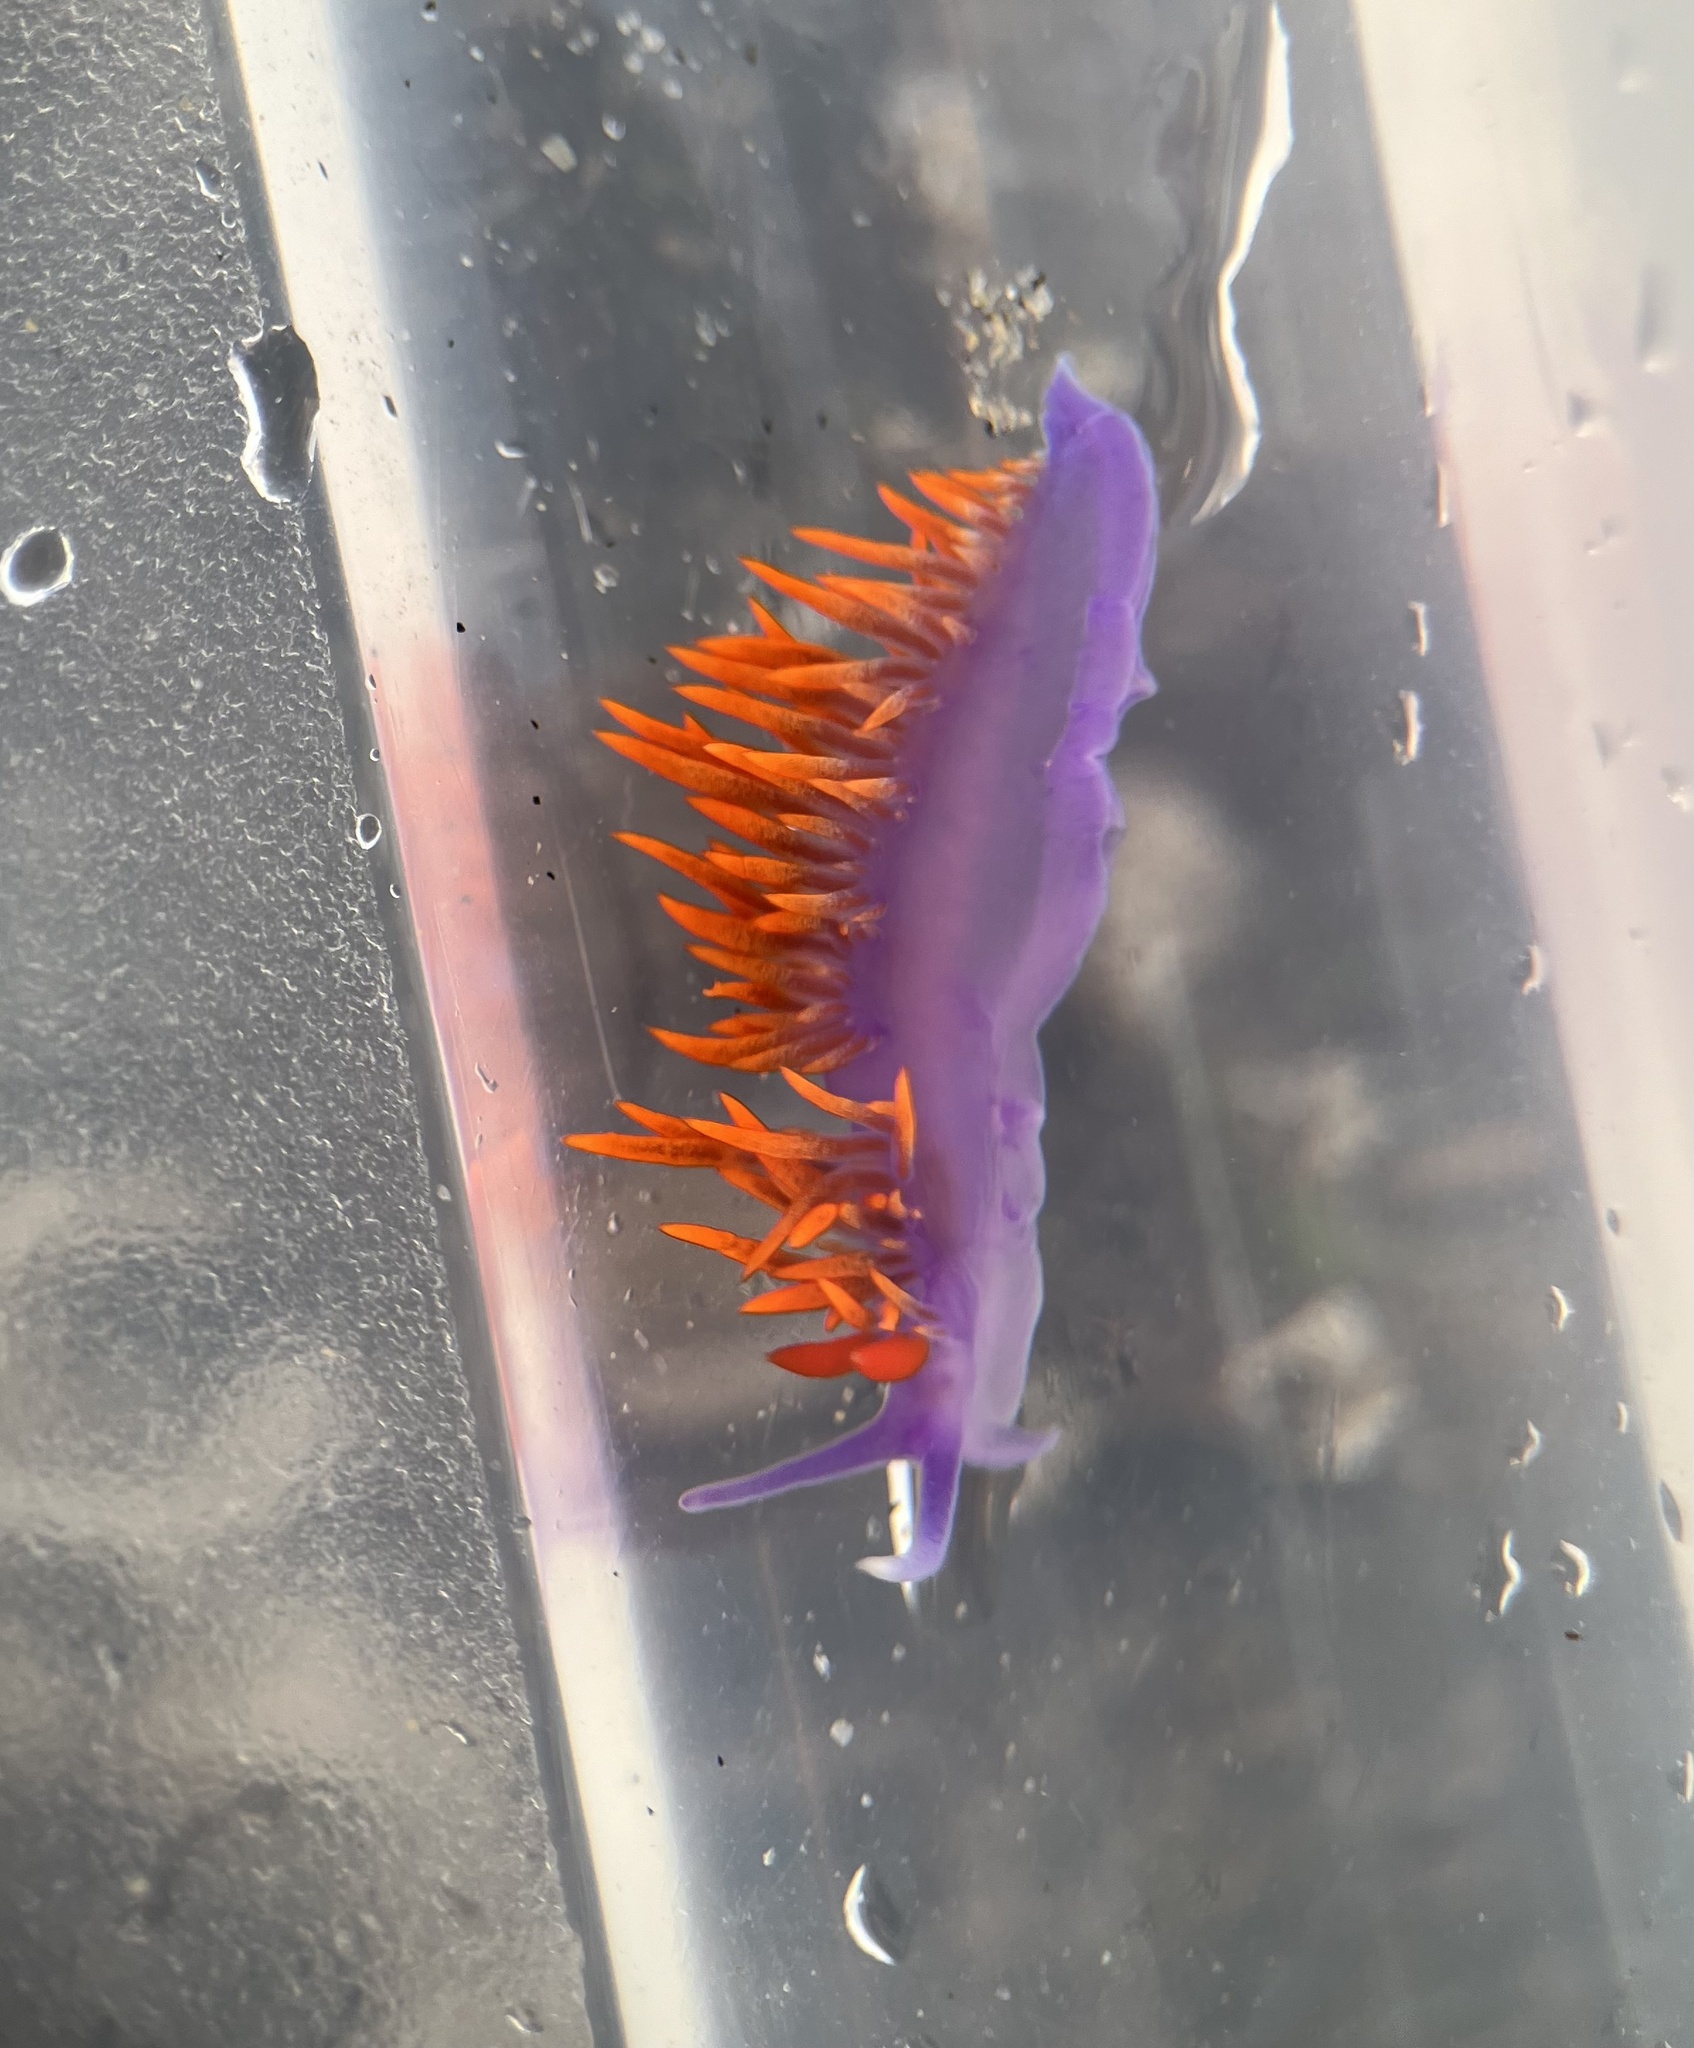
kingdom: Animalia
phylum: Mollusca
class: Gastropoda
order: Nudibranchia
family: Flabellinopsidae
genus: Flabellinopsis
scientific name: Flabellinopsis iodinea
